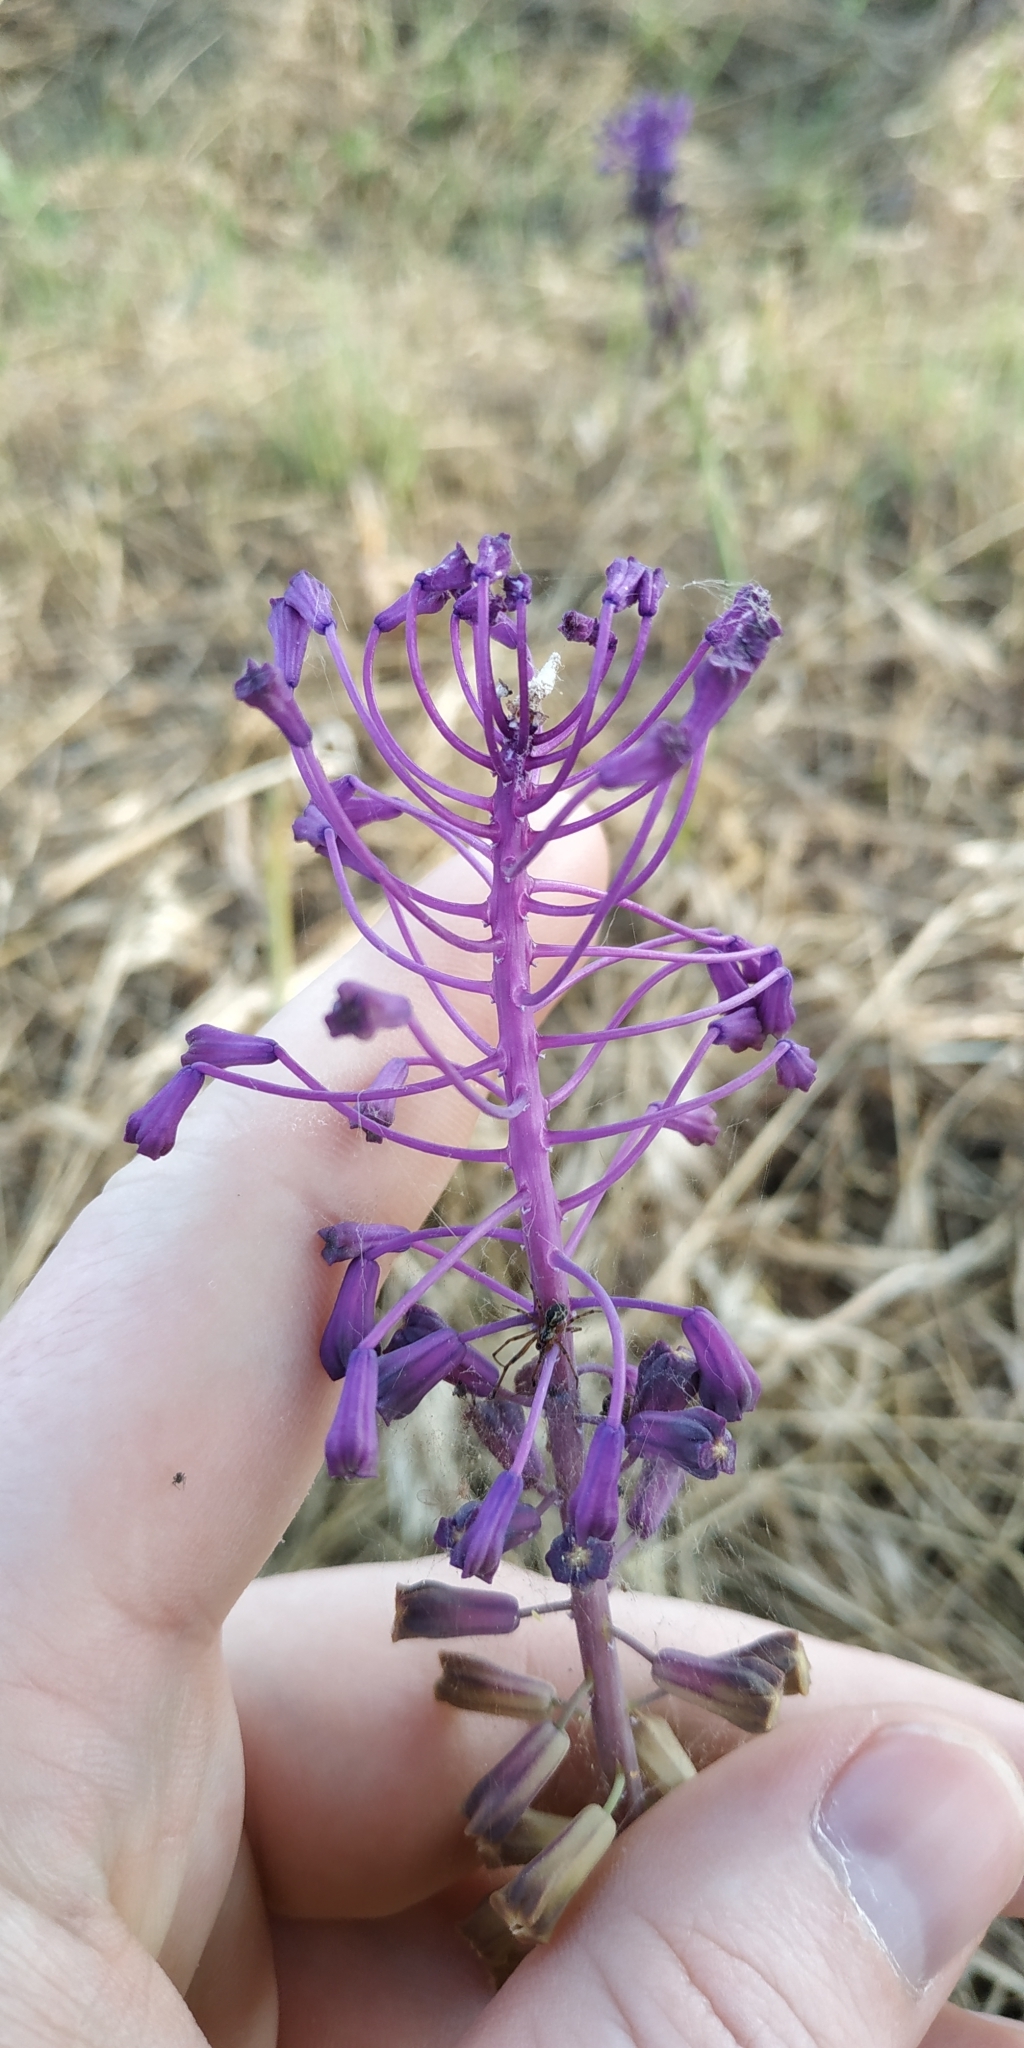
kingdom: Plantae
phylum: Tracheophyta
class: Liliopsida
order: Asparagales
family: Asparagaceae
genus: Muscari
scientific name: Muscari comosum
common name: Tassel hyacinth
